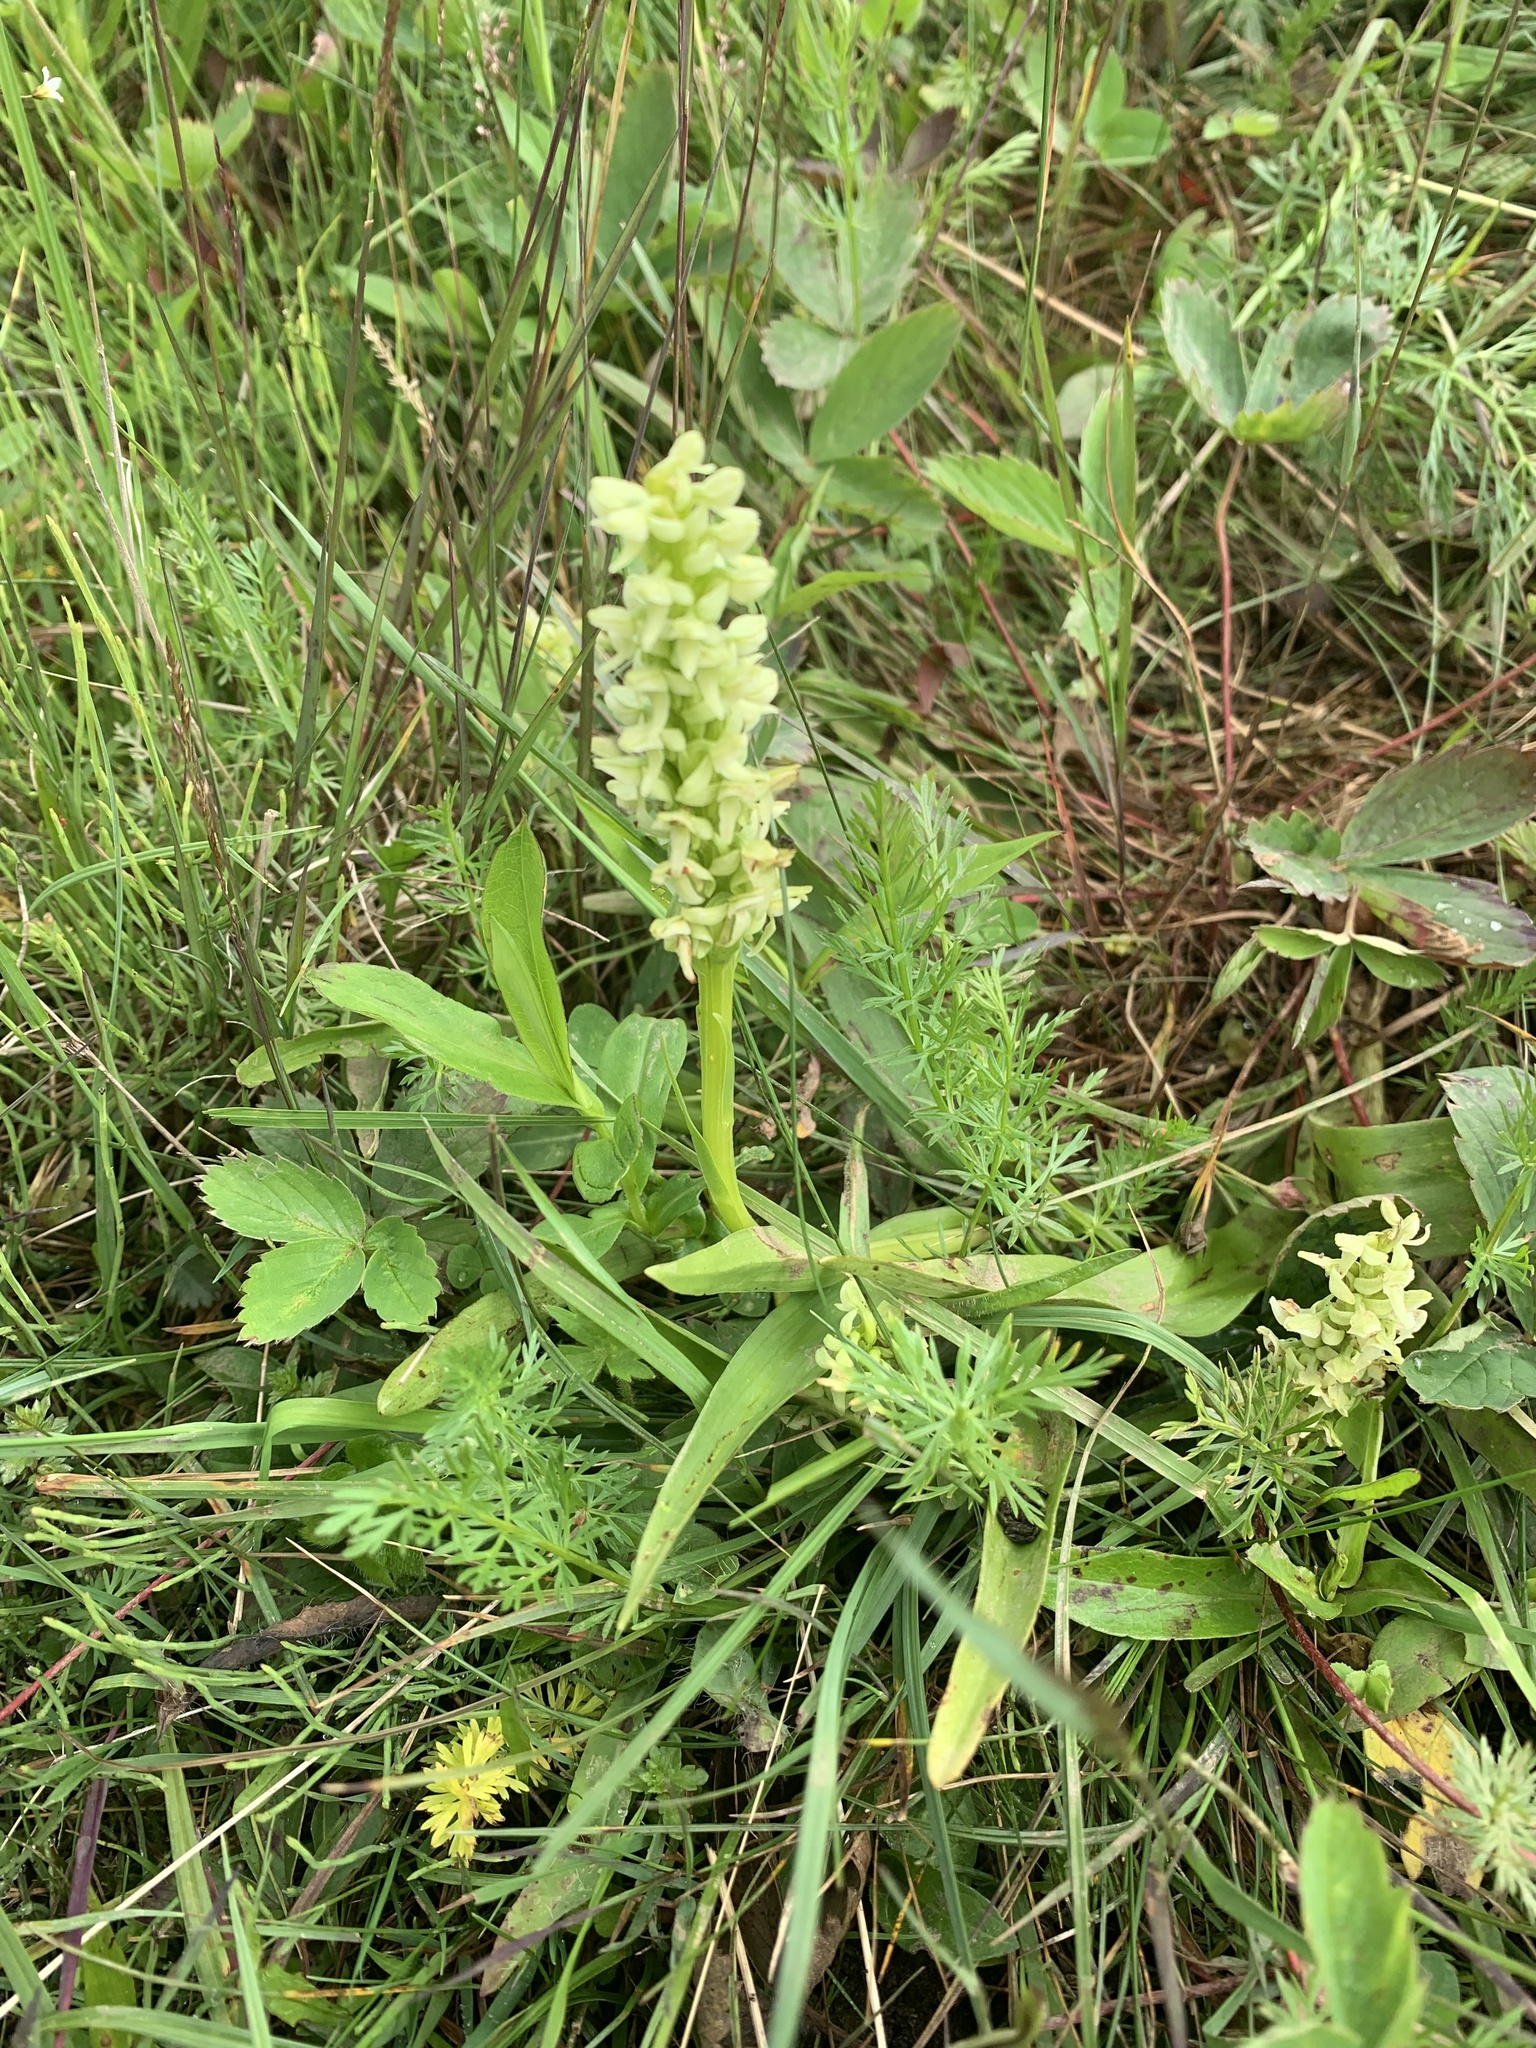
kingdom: Plantae
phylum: Tracheophyta
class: Liliopsida
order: Asparagales
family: Orchidaceae
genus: Platanthera
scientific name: Platanthera huronensis
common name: Fragrant green orchid
